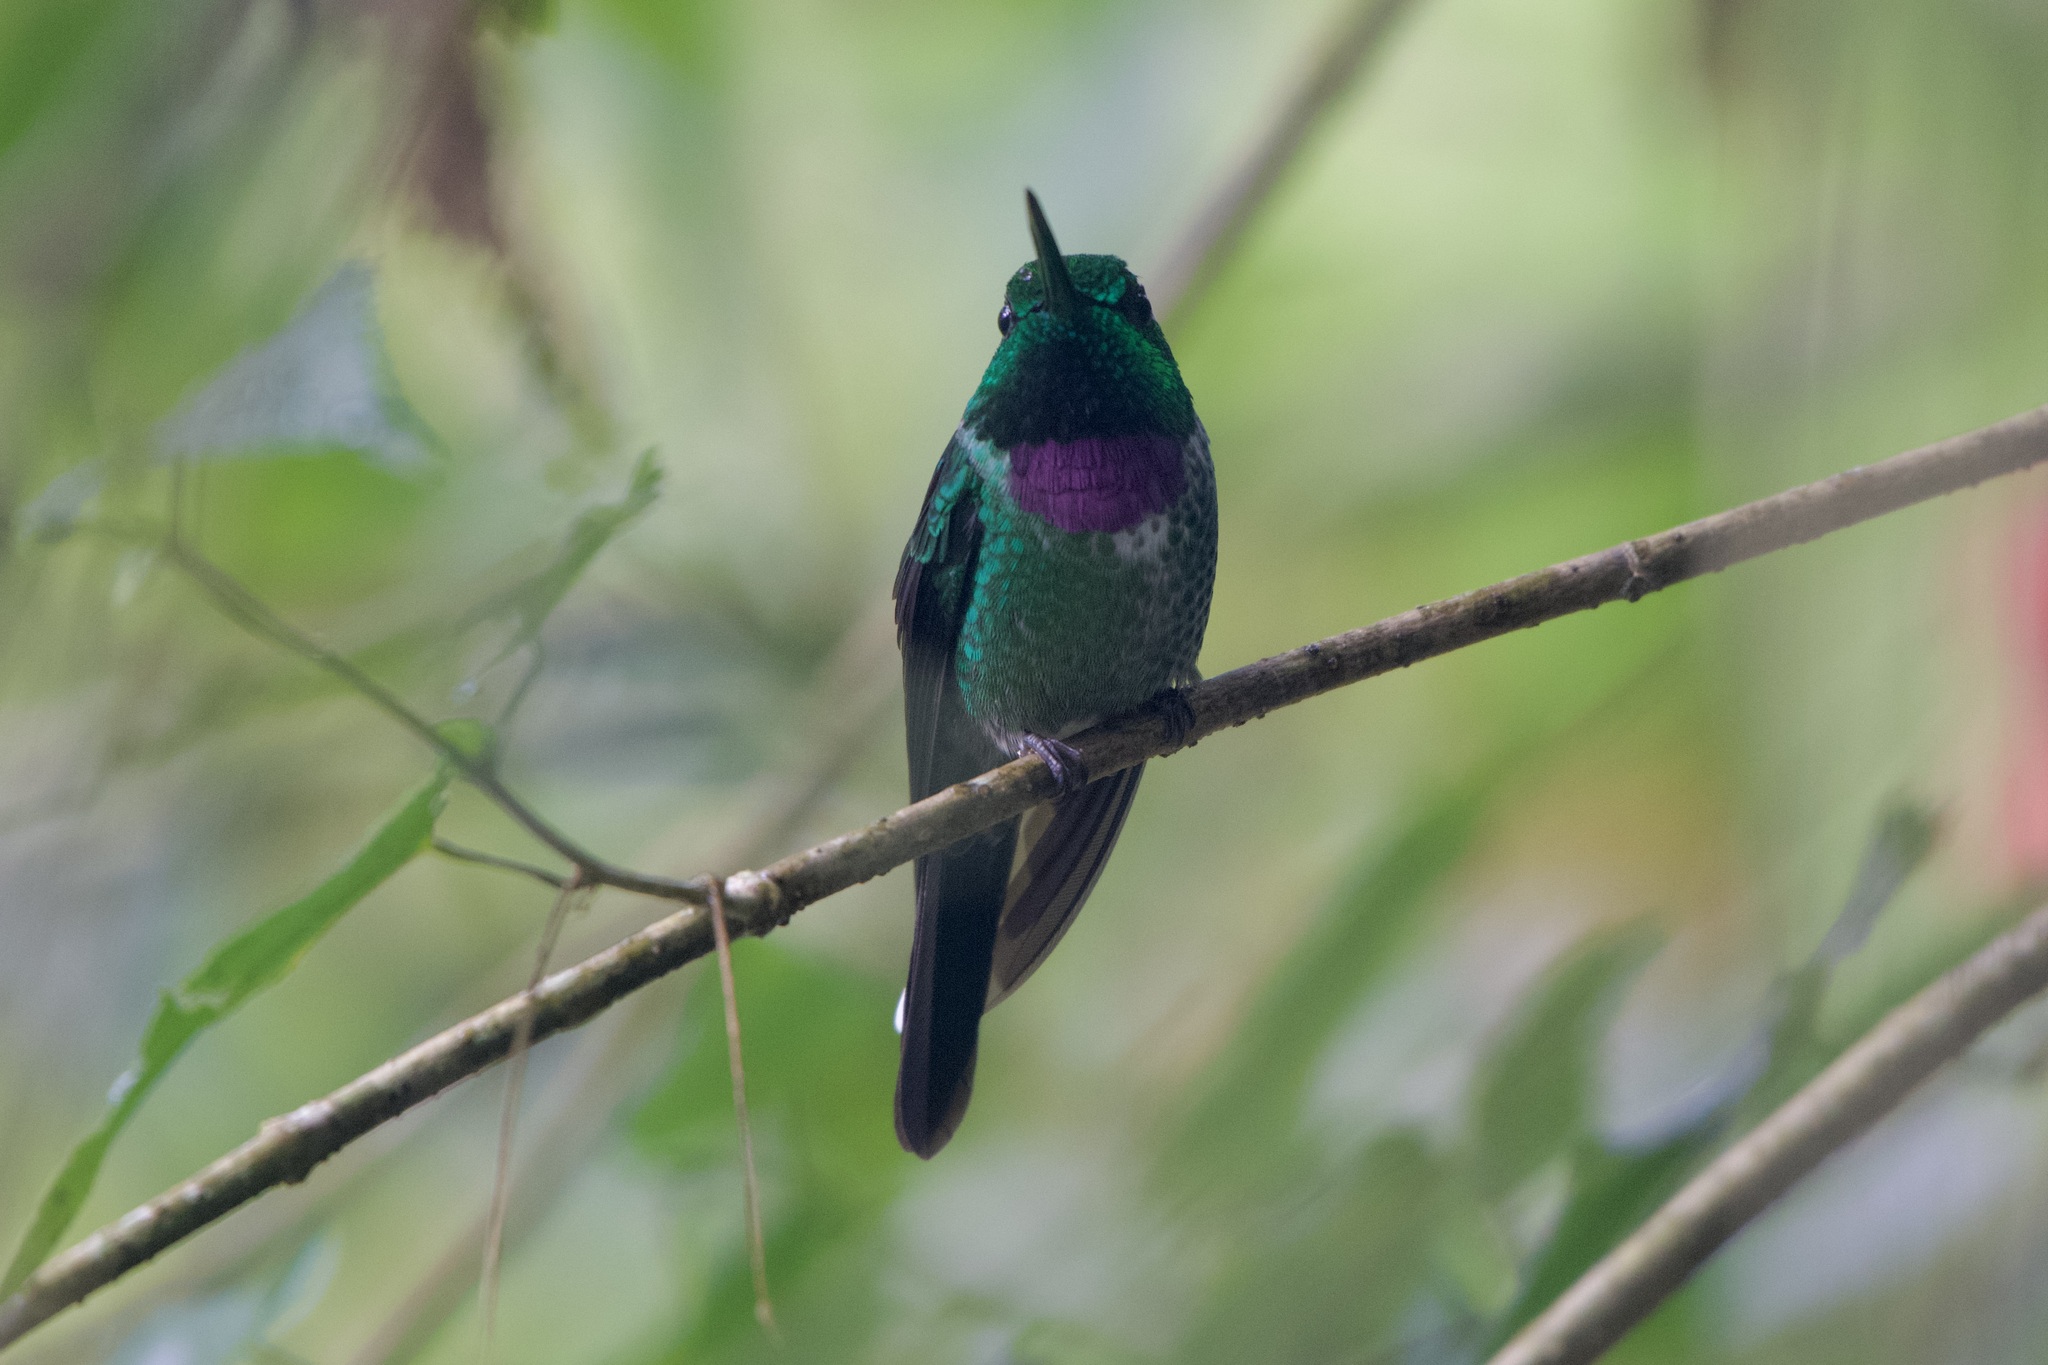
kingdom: Animalia
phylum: Chordata
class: Aves
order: Apodiformes
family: Trochilidae
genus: Urosticte
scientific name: Urosticte benjamini
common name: Purple-bibbed whitetip
